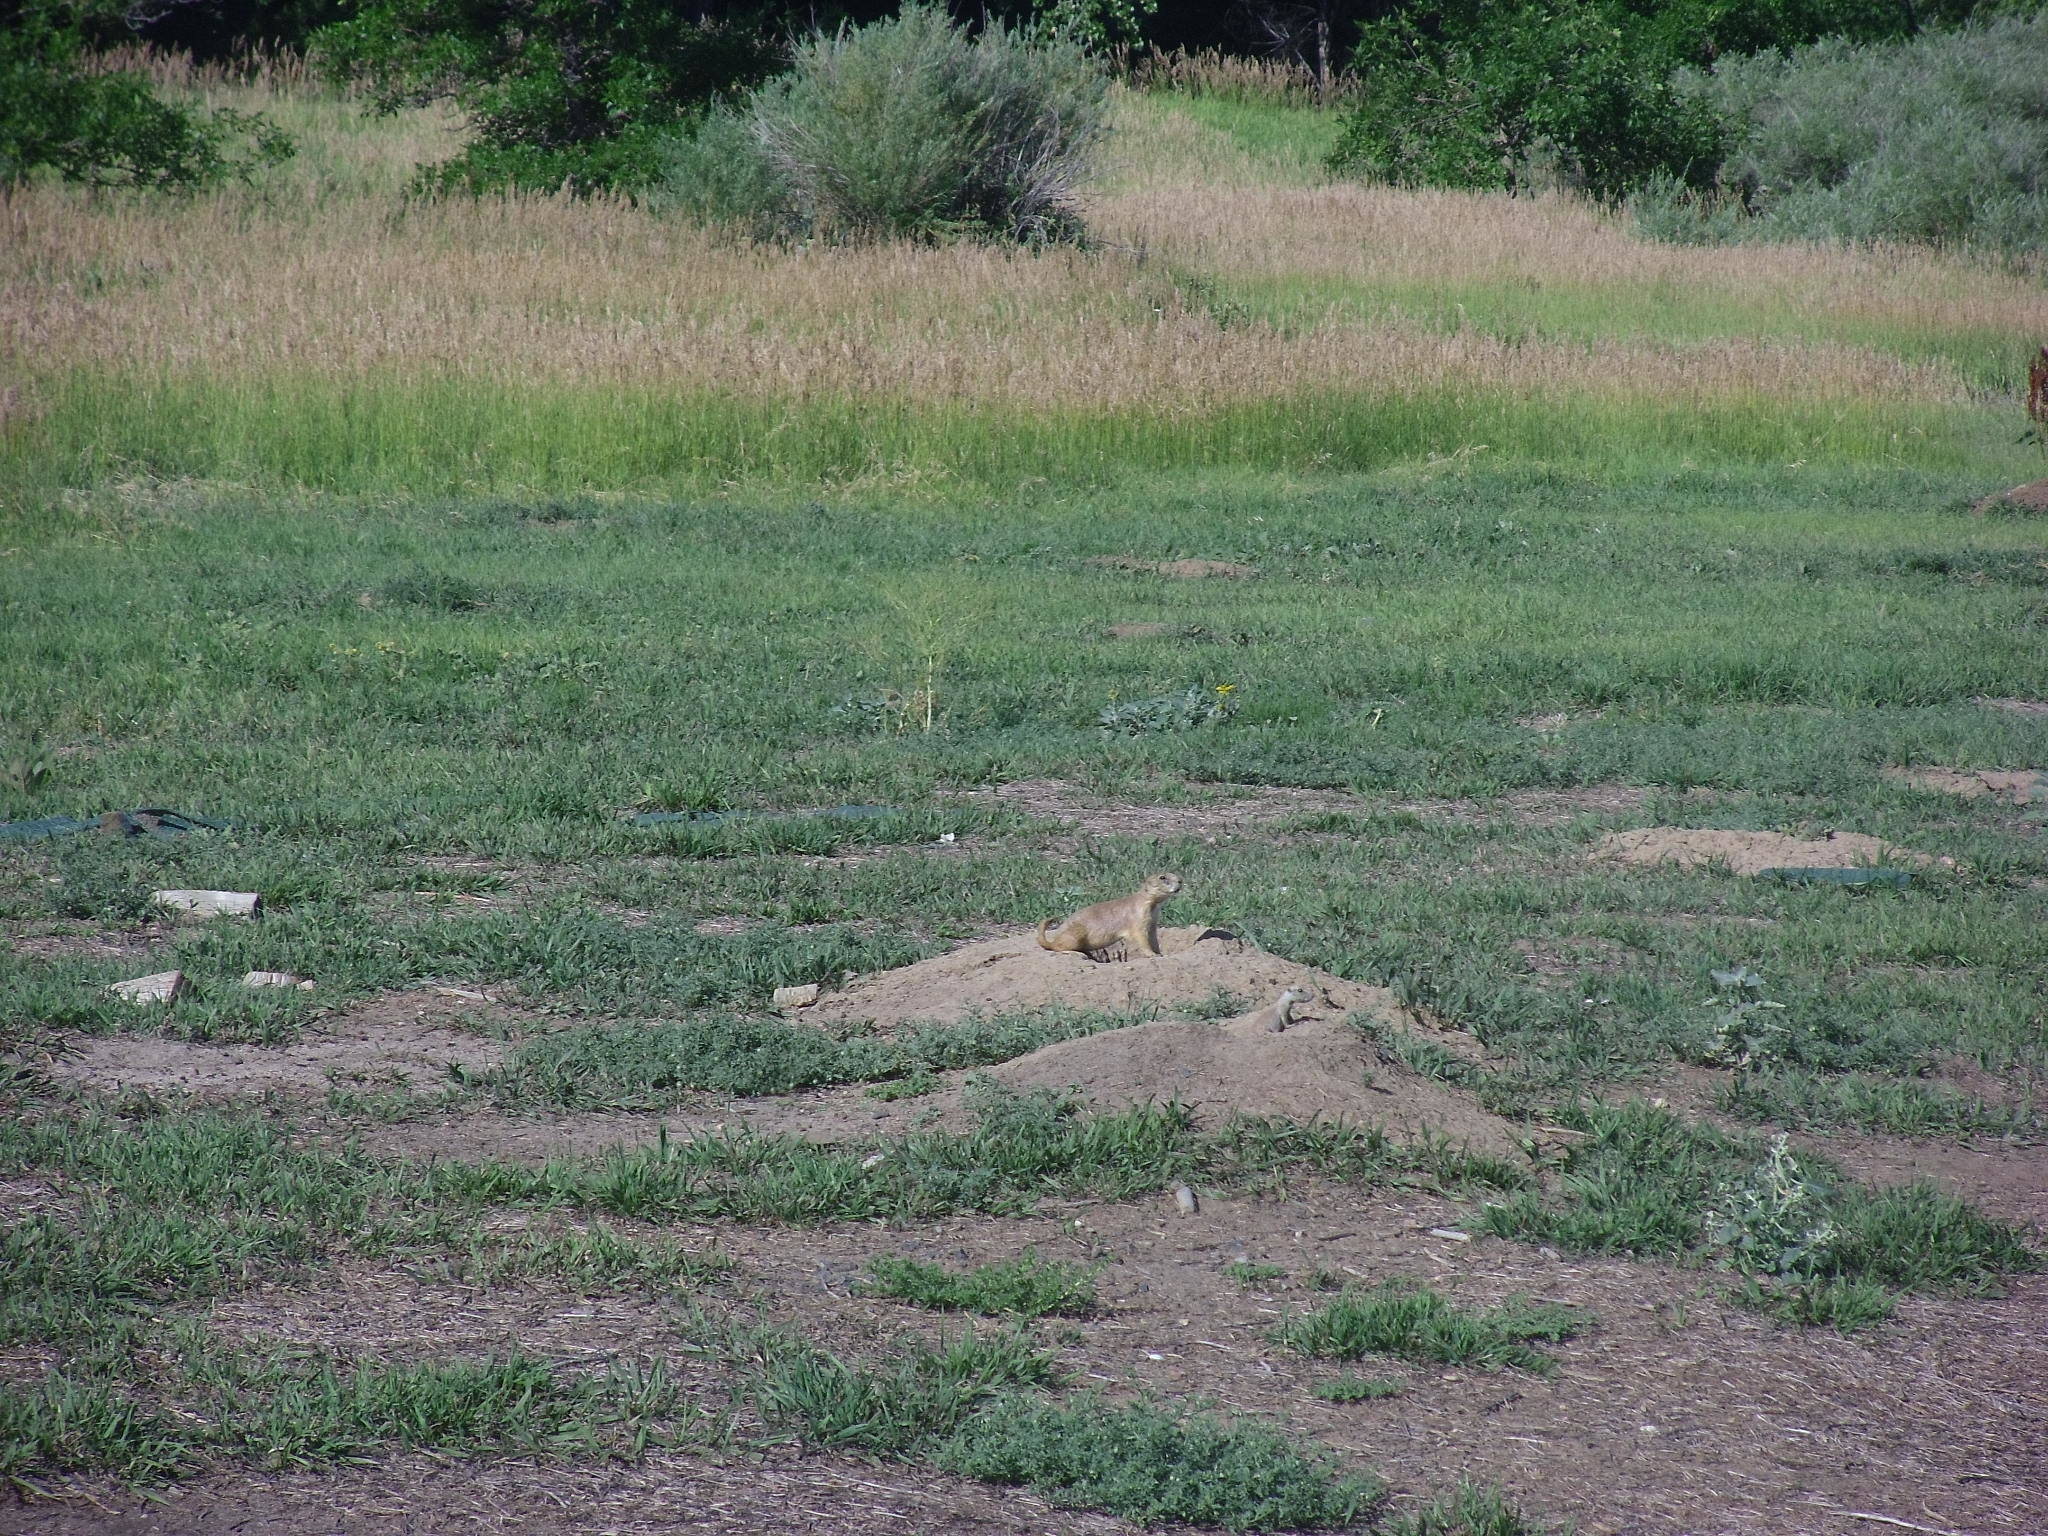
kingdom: Animalia
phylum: Chordata
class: Mammalia
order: Rodentia
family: Sciuridae
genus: Cynomys
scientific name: Cynomys ludovicianus
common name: Black-tailed prairie dog
